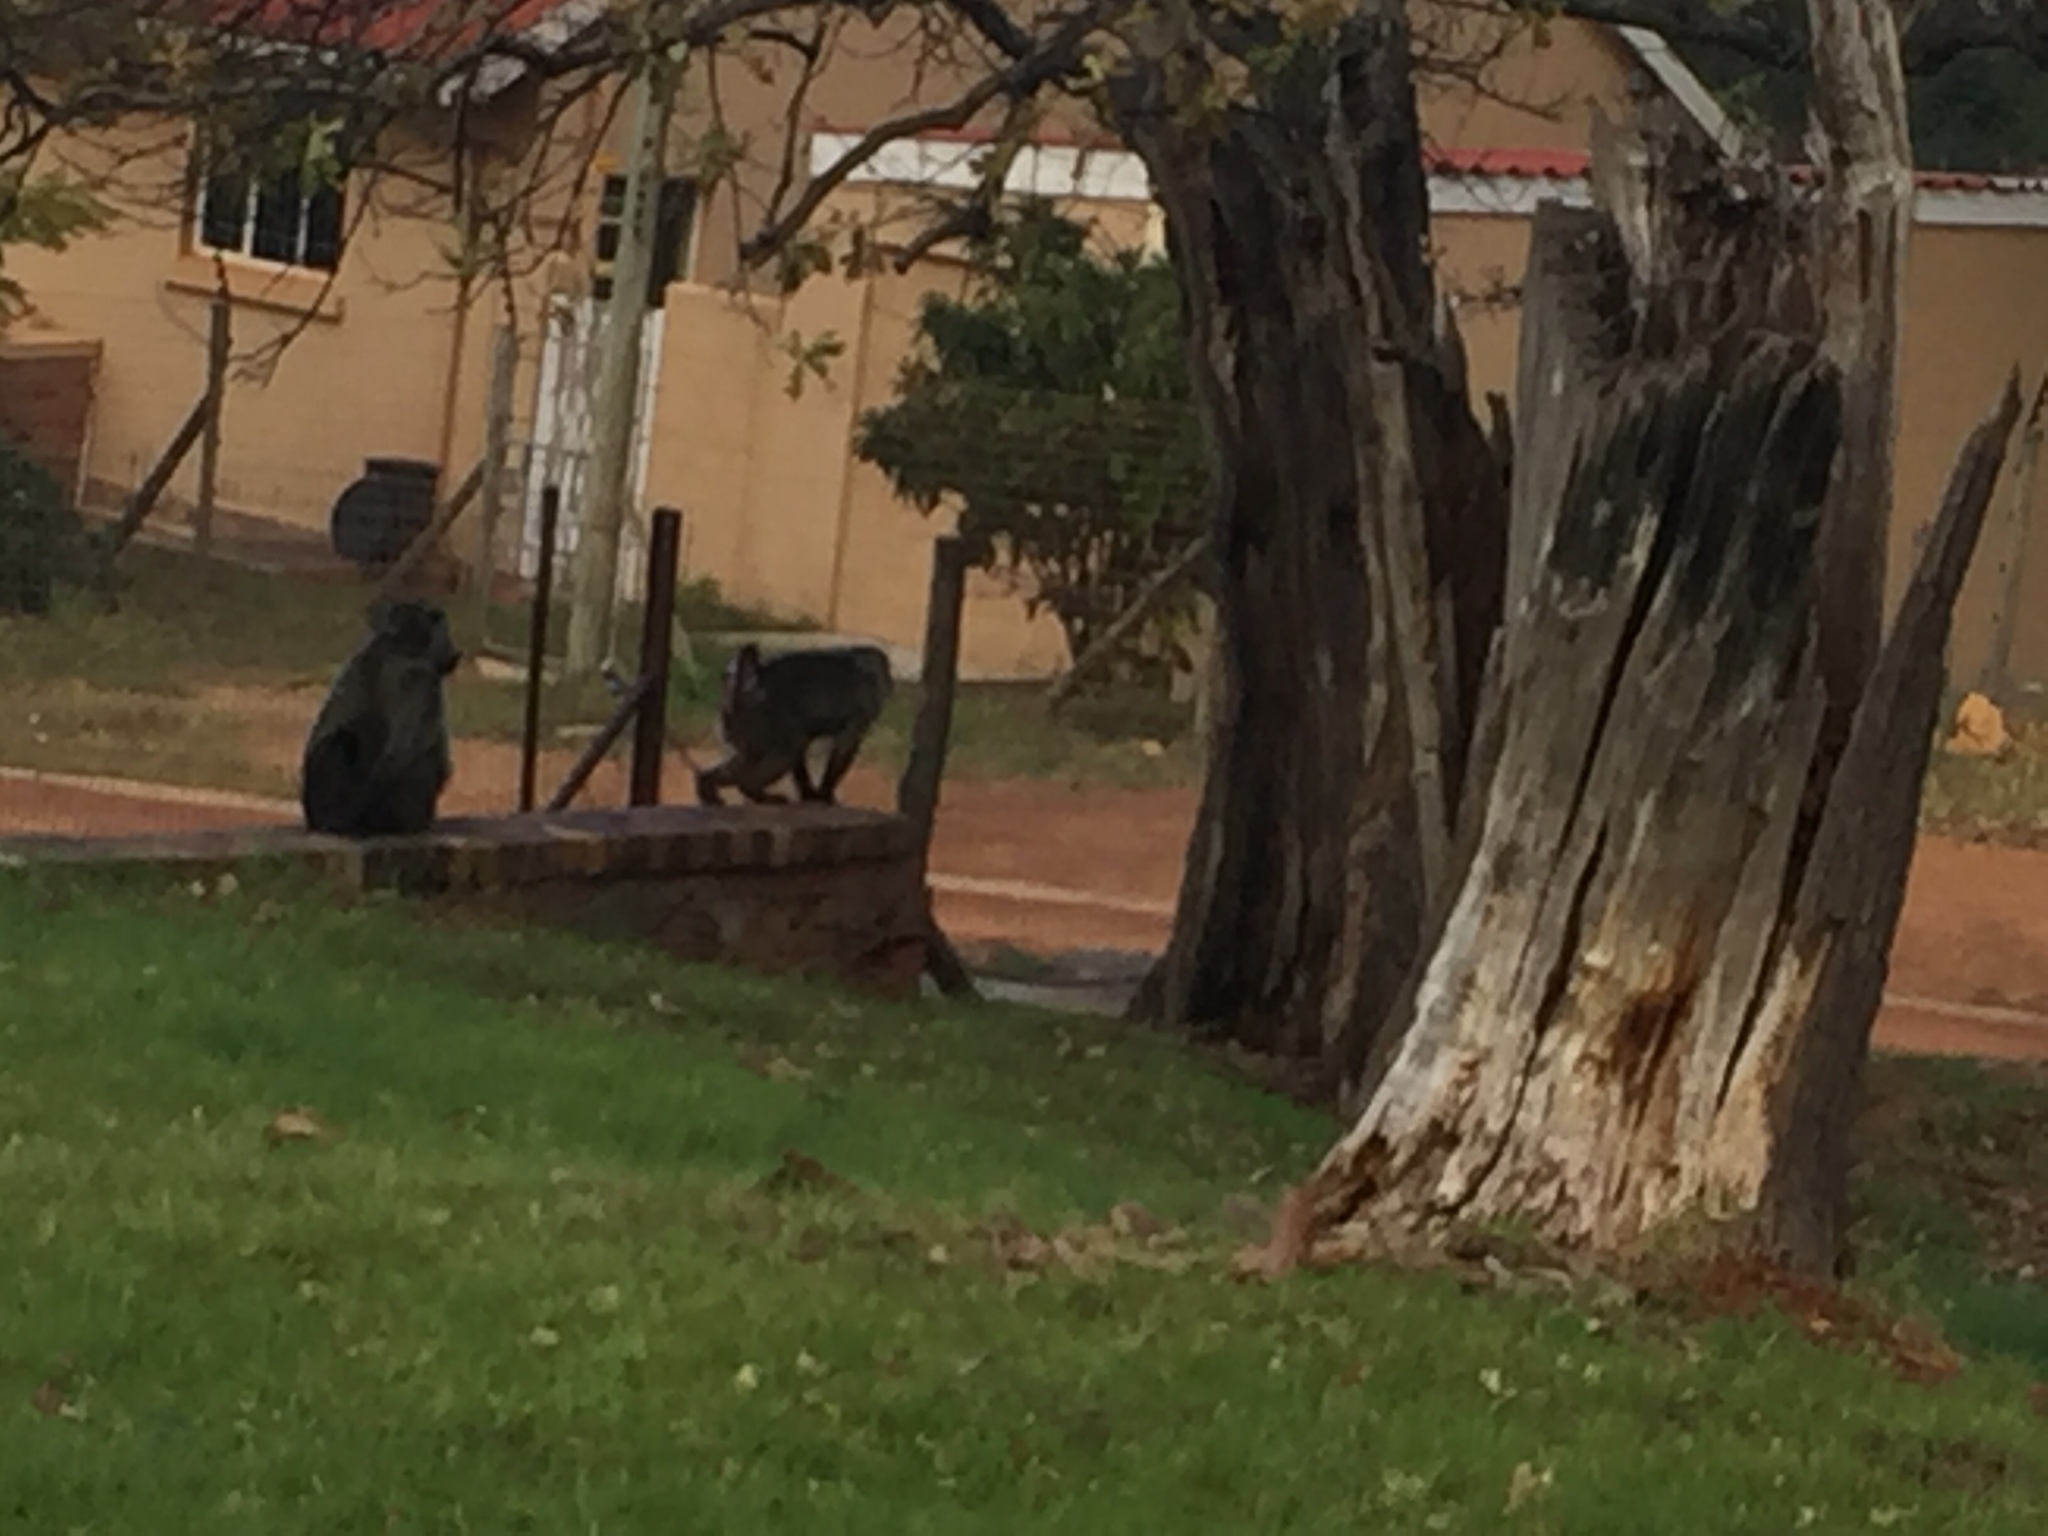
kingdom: Animalia
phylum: Chordata
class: Mammalia
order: Primates
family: Cercopithecidae
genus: Papio
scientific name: Papio ursinus
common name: Chacma baboon
